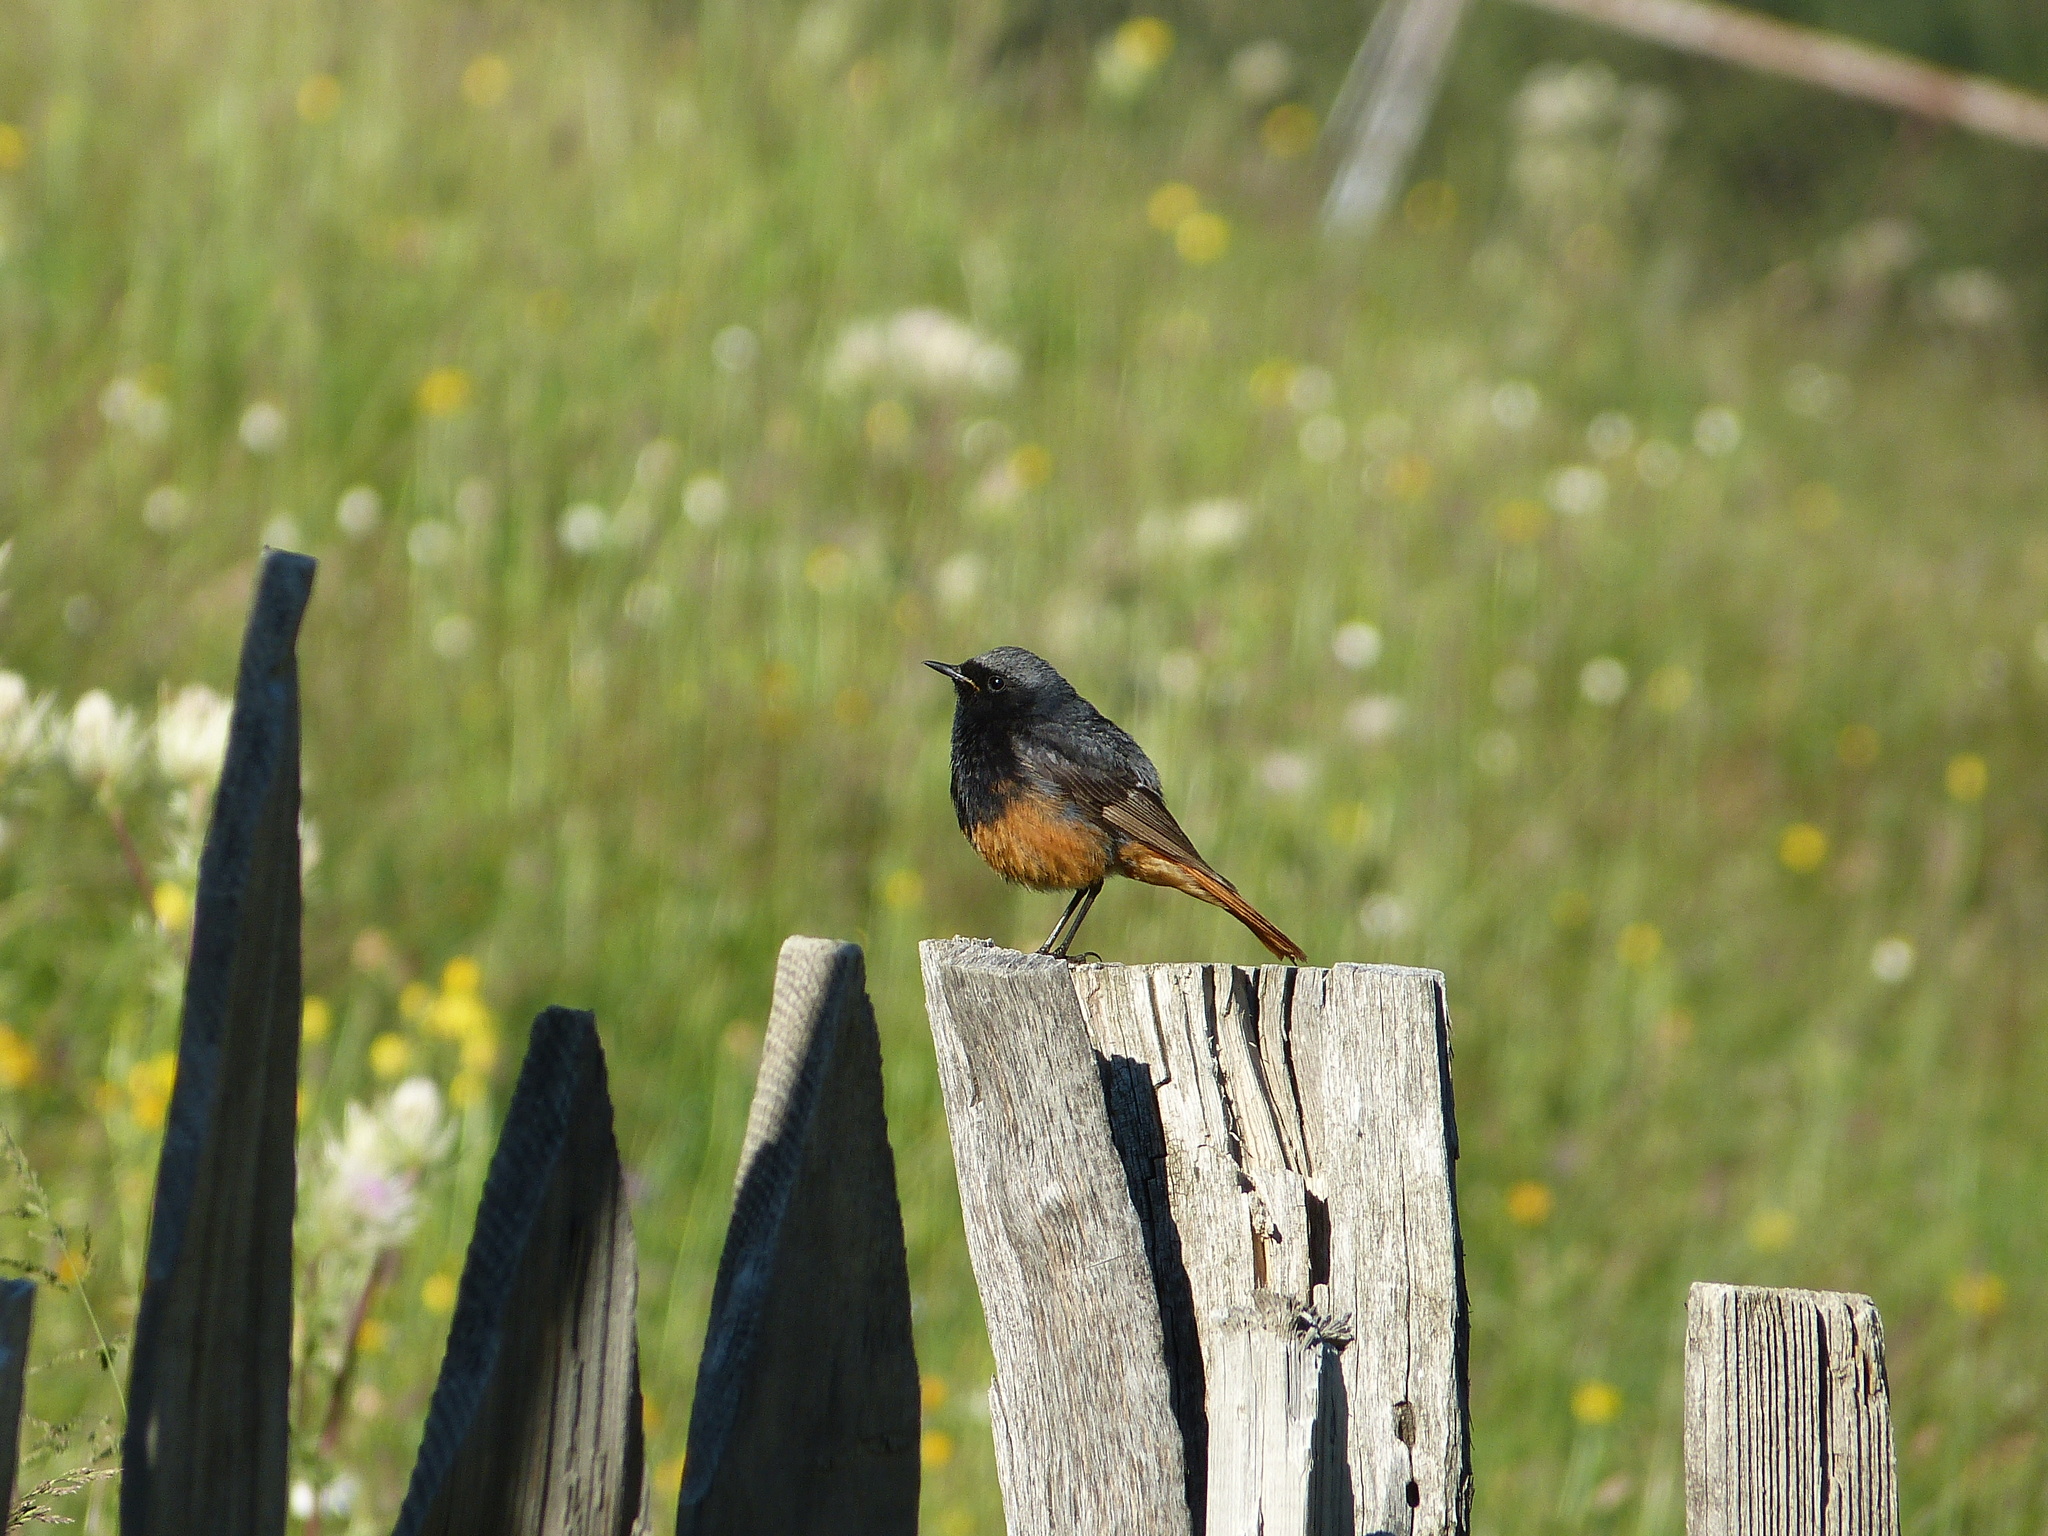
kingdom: Animalia
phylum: Chordata
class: Aves
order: Passeriformes
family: Muscicapidae
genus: Phoenicurus
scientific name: Phoenicurus ochruros
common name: Black redstart
